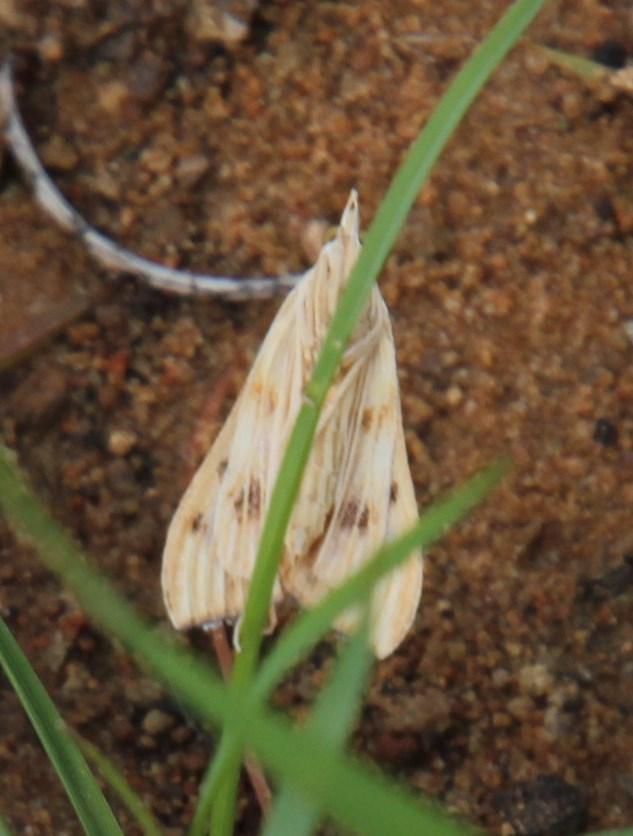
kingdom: Animalia
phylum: Arthropoda
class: Insecta
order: Lepidoptera
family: Crambidae
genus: Antigastra
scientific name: Antigastra catalaunalis
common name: Spanish dot
